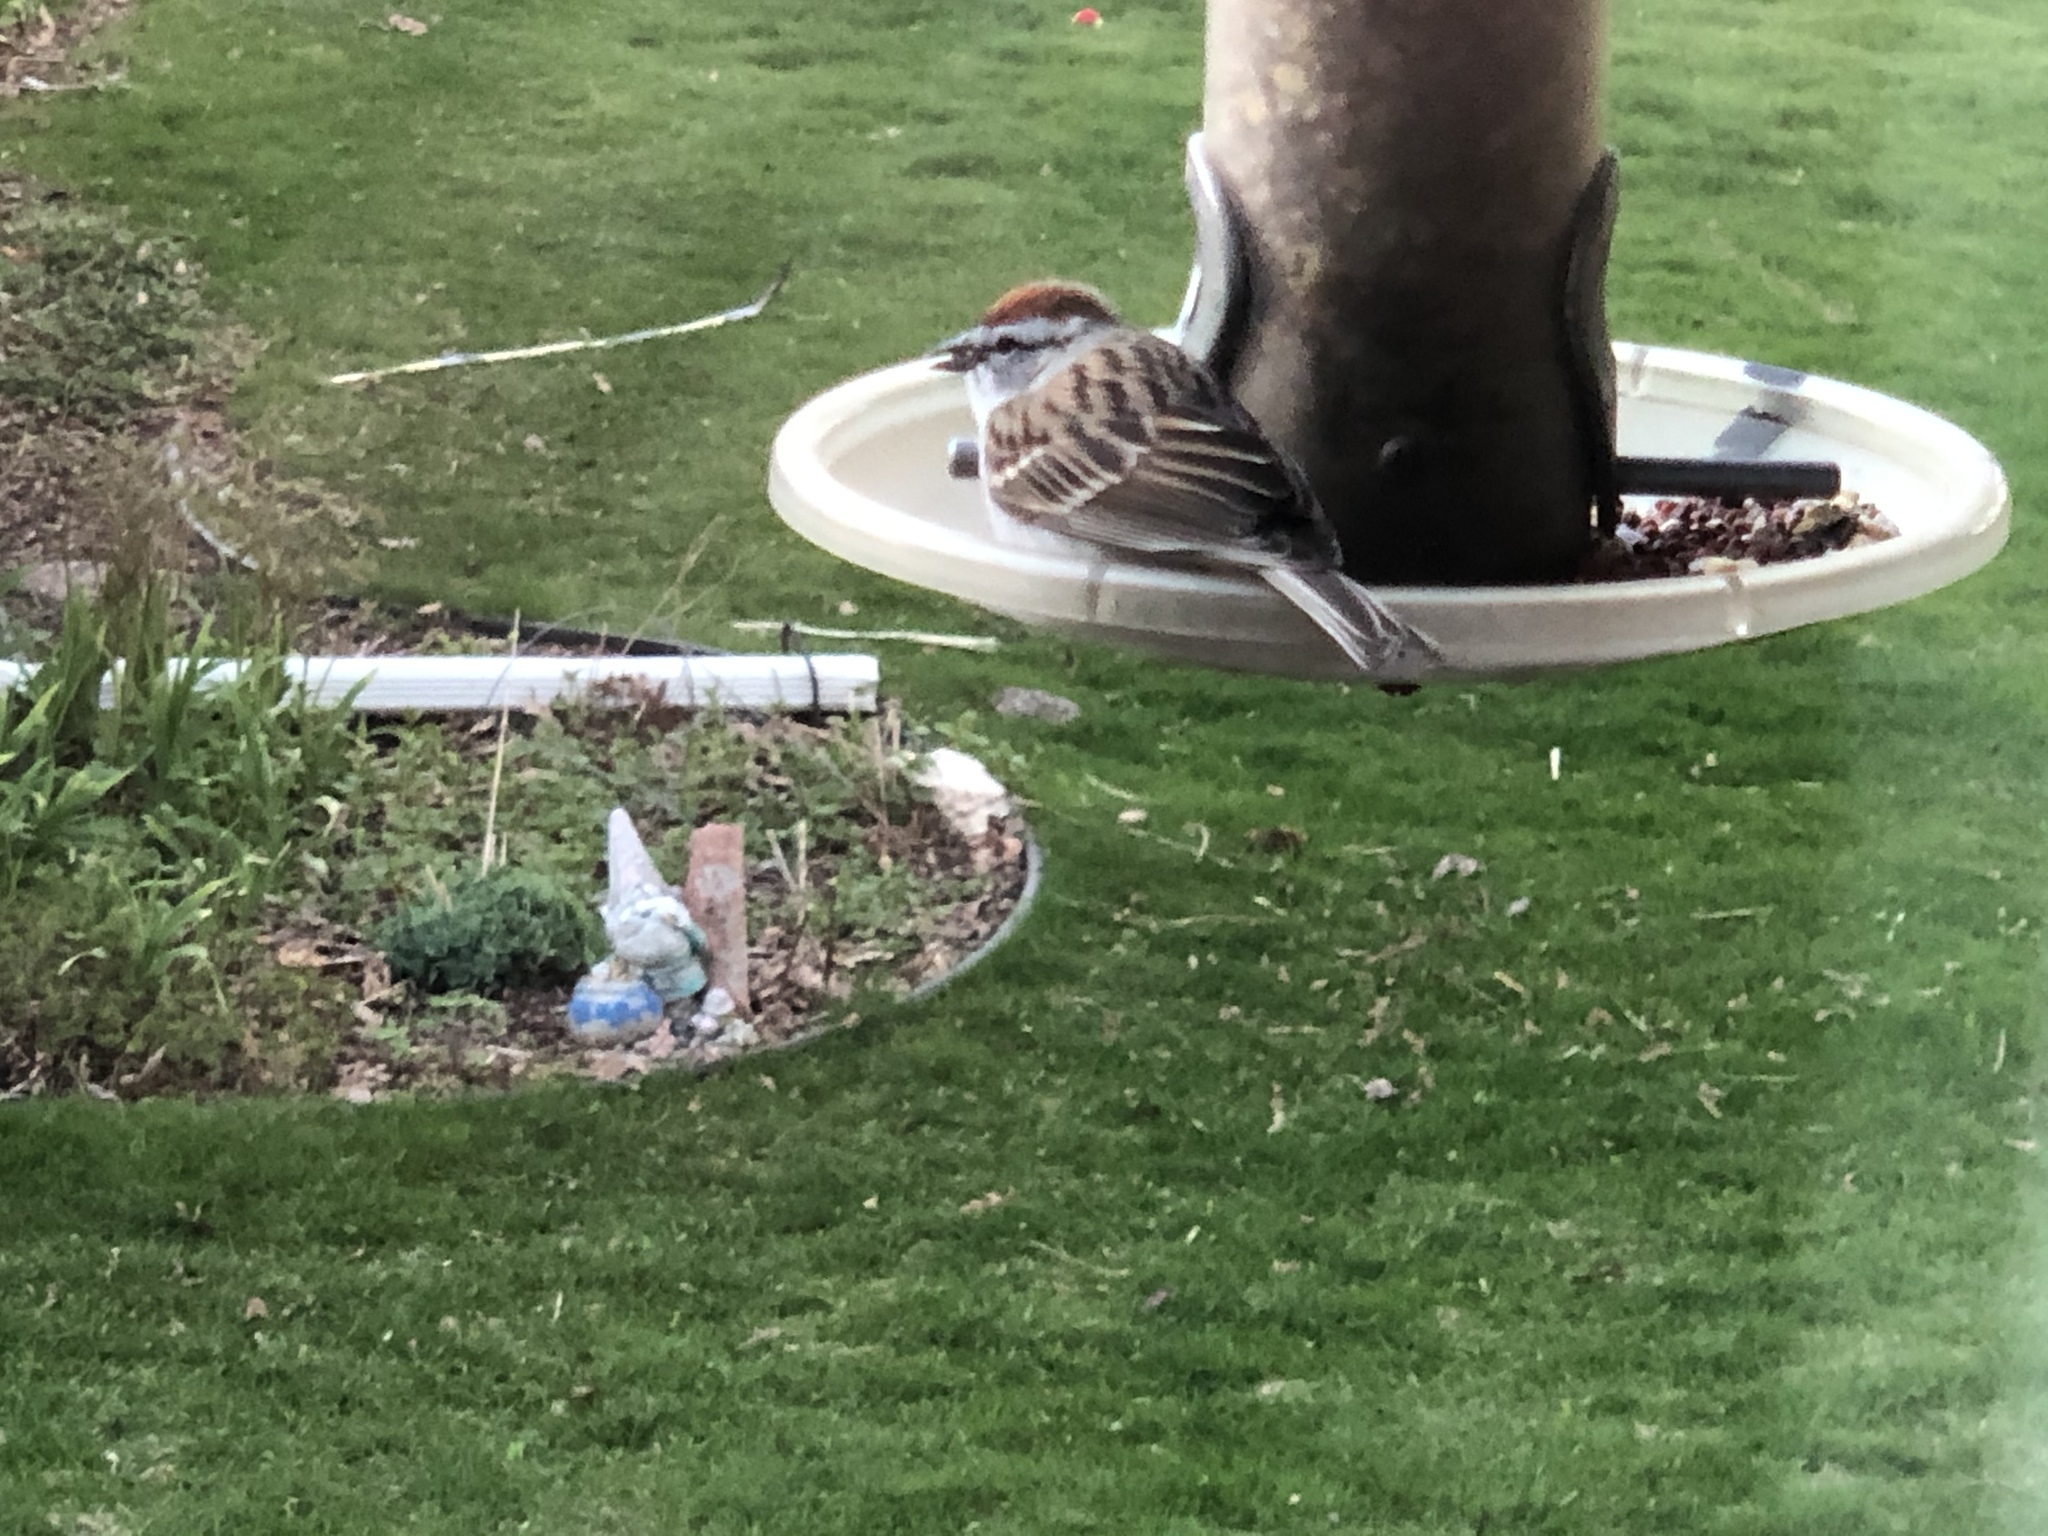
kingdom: Animalia
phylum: Chordata
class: Aves
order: Passeriformes
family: Passerellidae
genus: Spizella
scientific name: Spizella passerina
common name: Chipping sparrow
